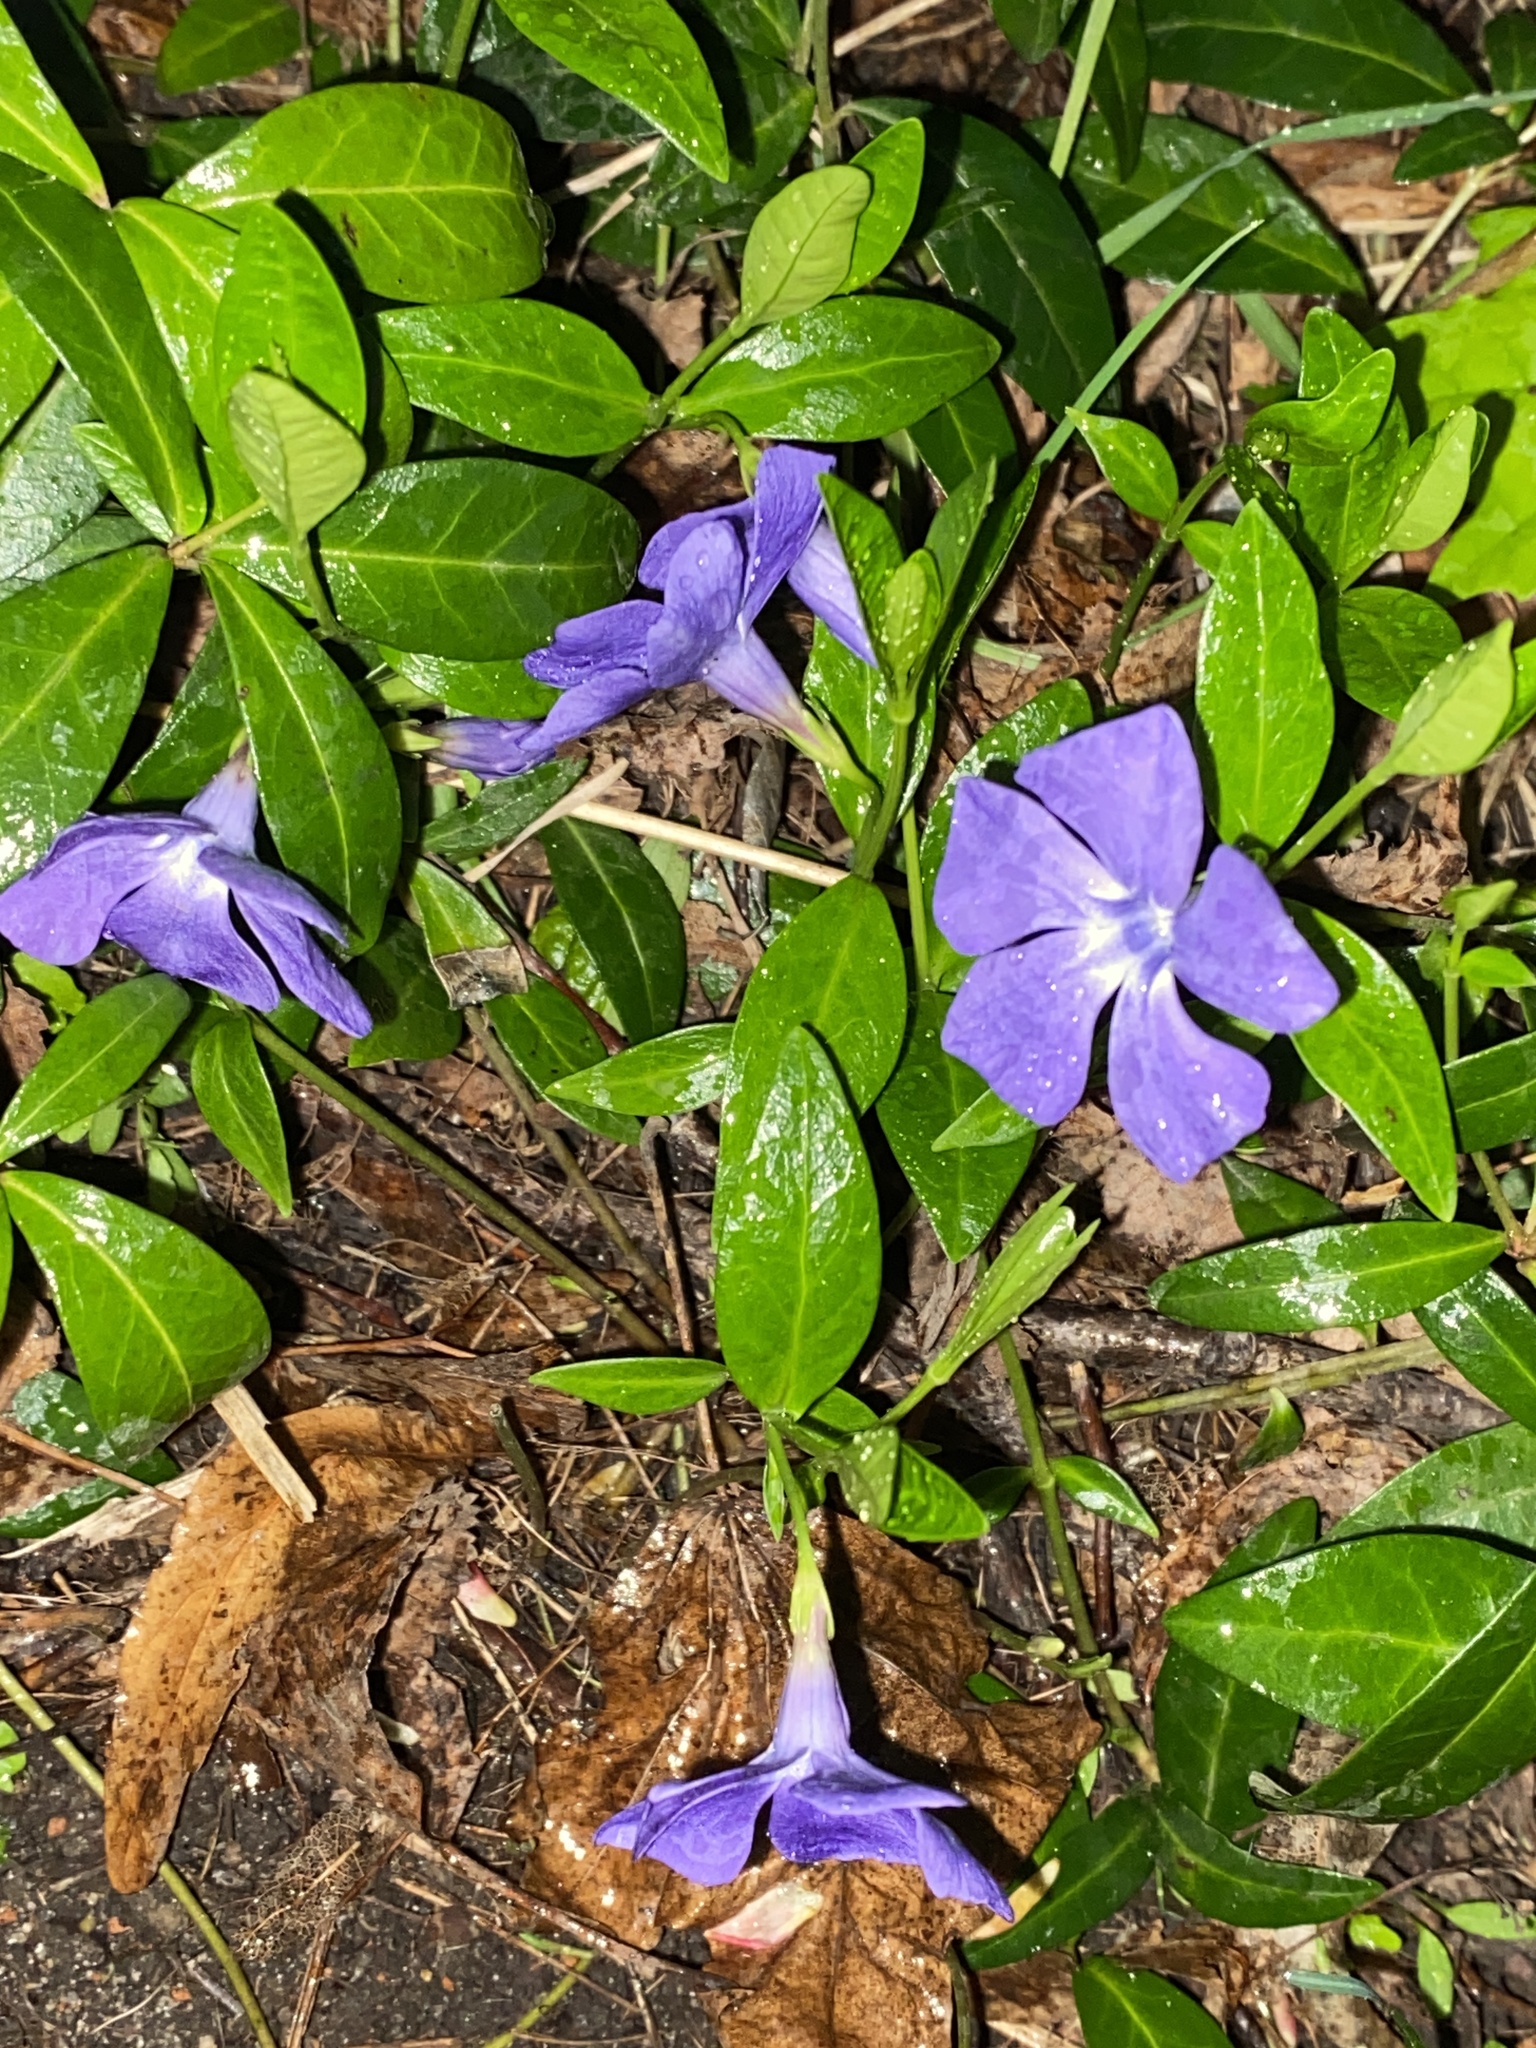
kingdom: Plantae
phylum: Tracheophyta
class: Magnoliopsida
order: Gentianales
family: Apocynaceae
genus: Vinca
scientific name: Vinca minor
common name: Lesser periwinkle
